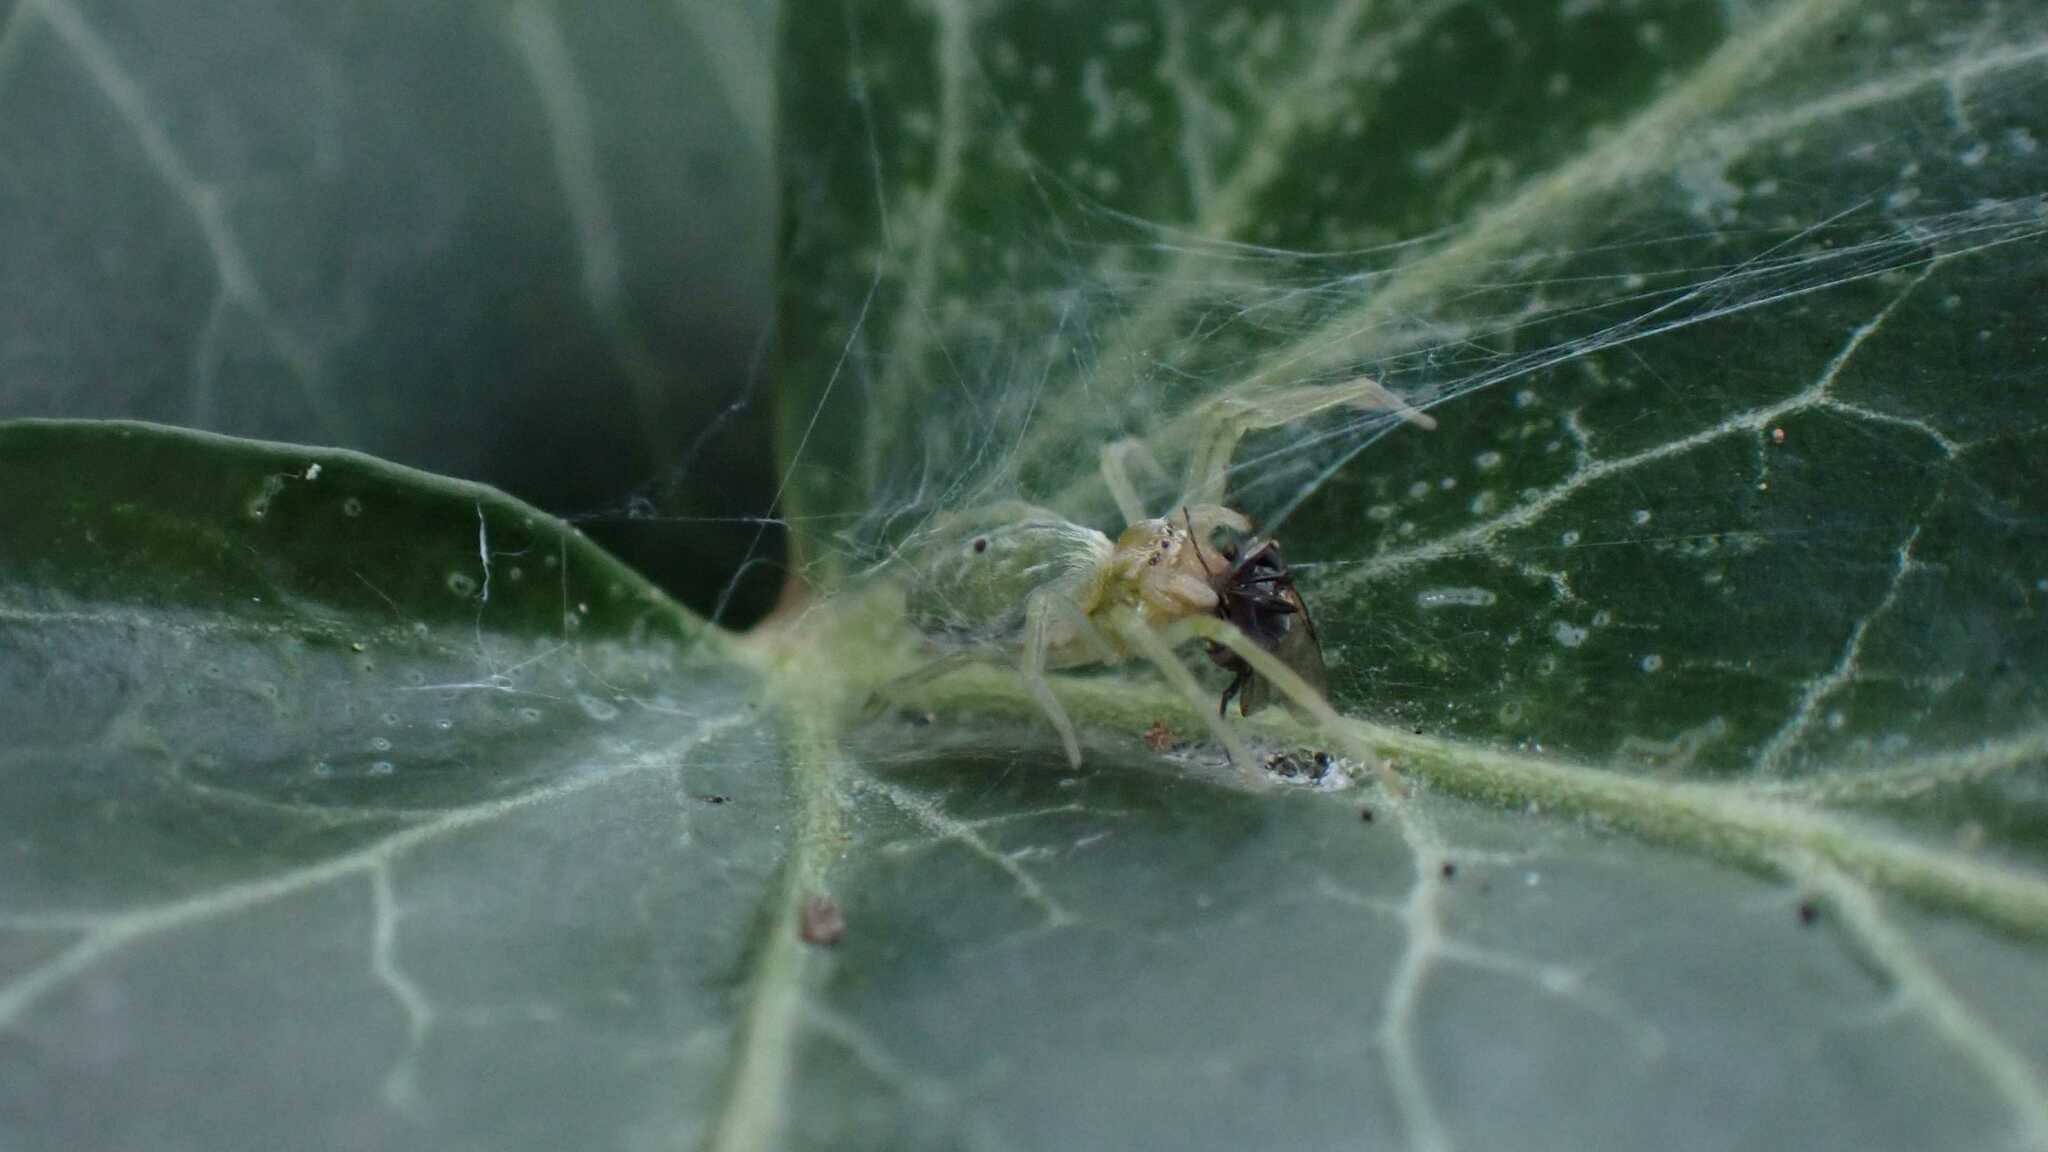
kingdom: Animalia
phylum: Arthropoda
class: Arachnida
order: Araneae
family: Dictynidae
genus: Nigma
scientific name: Nigma walckenaeri
